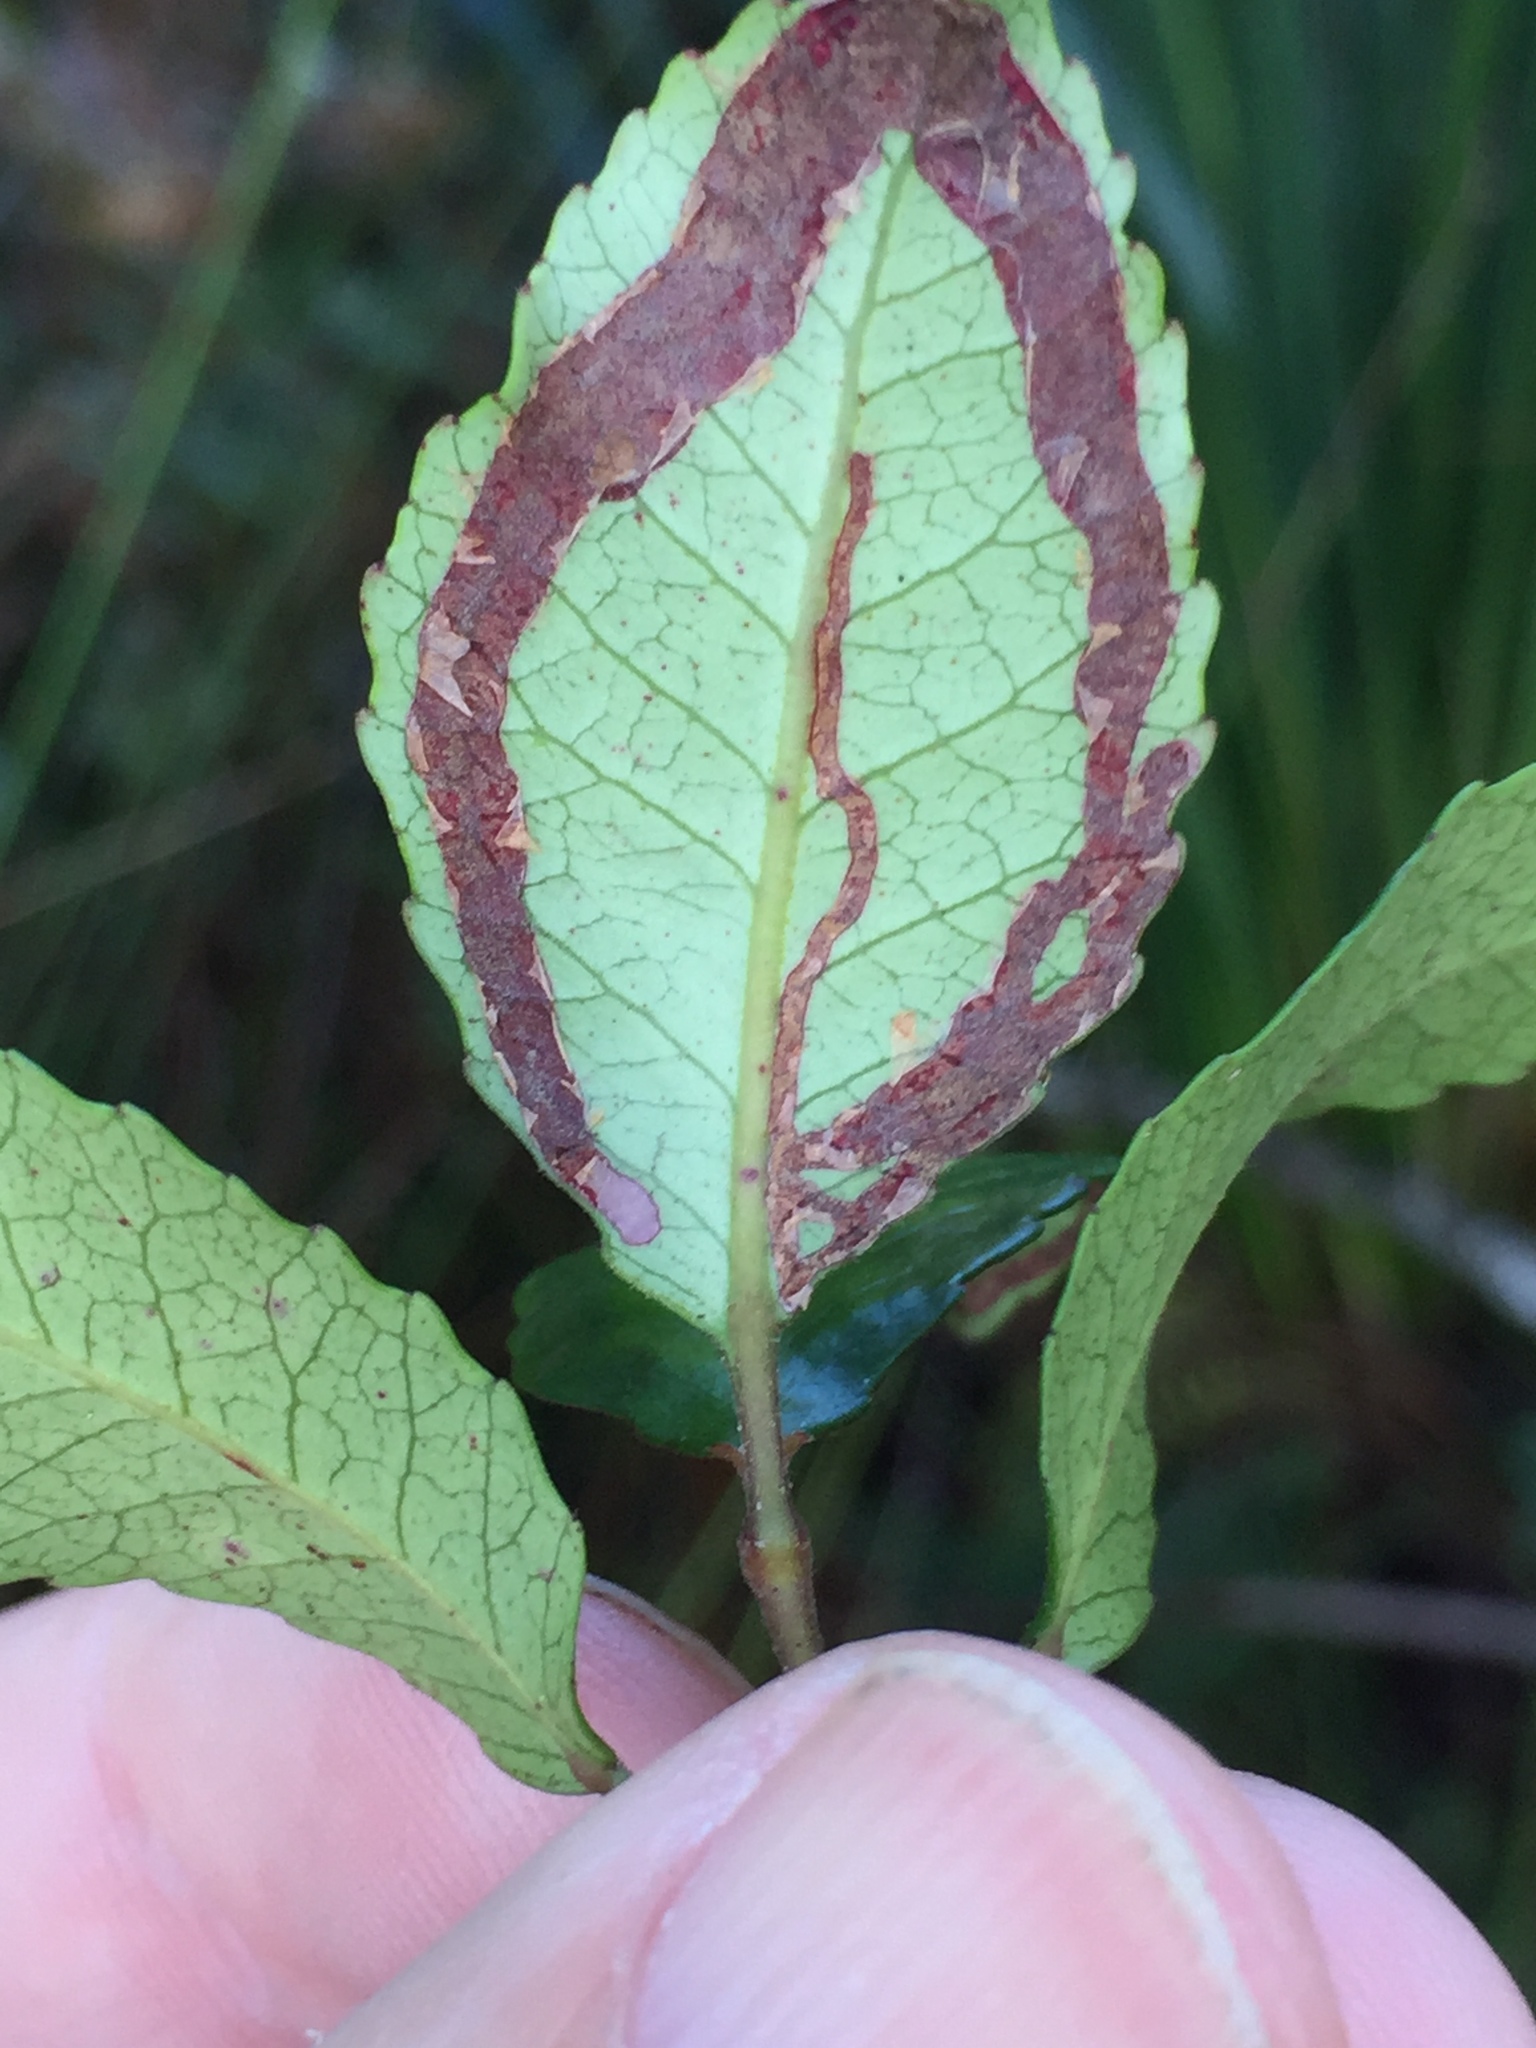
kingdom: Animalia
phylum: Arthropoda
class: Insecta
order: Lepidoptera
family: Gracillariidae
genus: Caloptilia
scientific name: Caloptilia chrysitis
